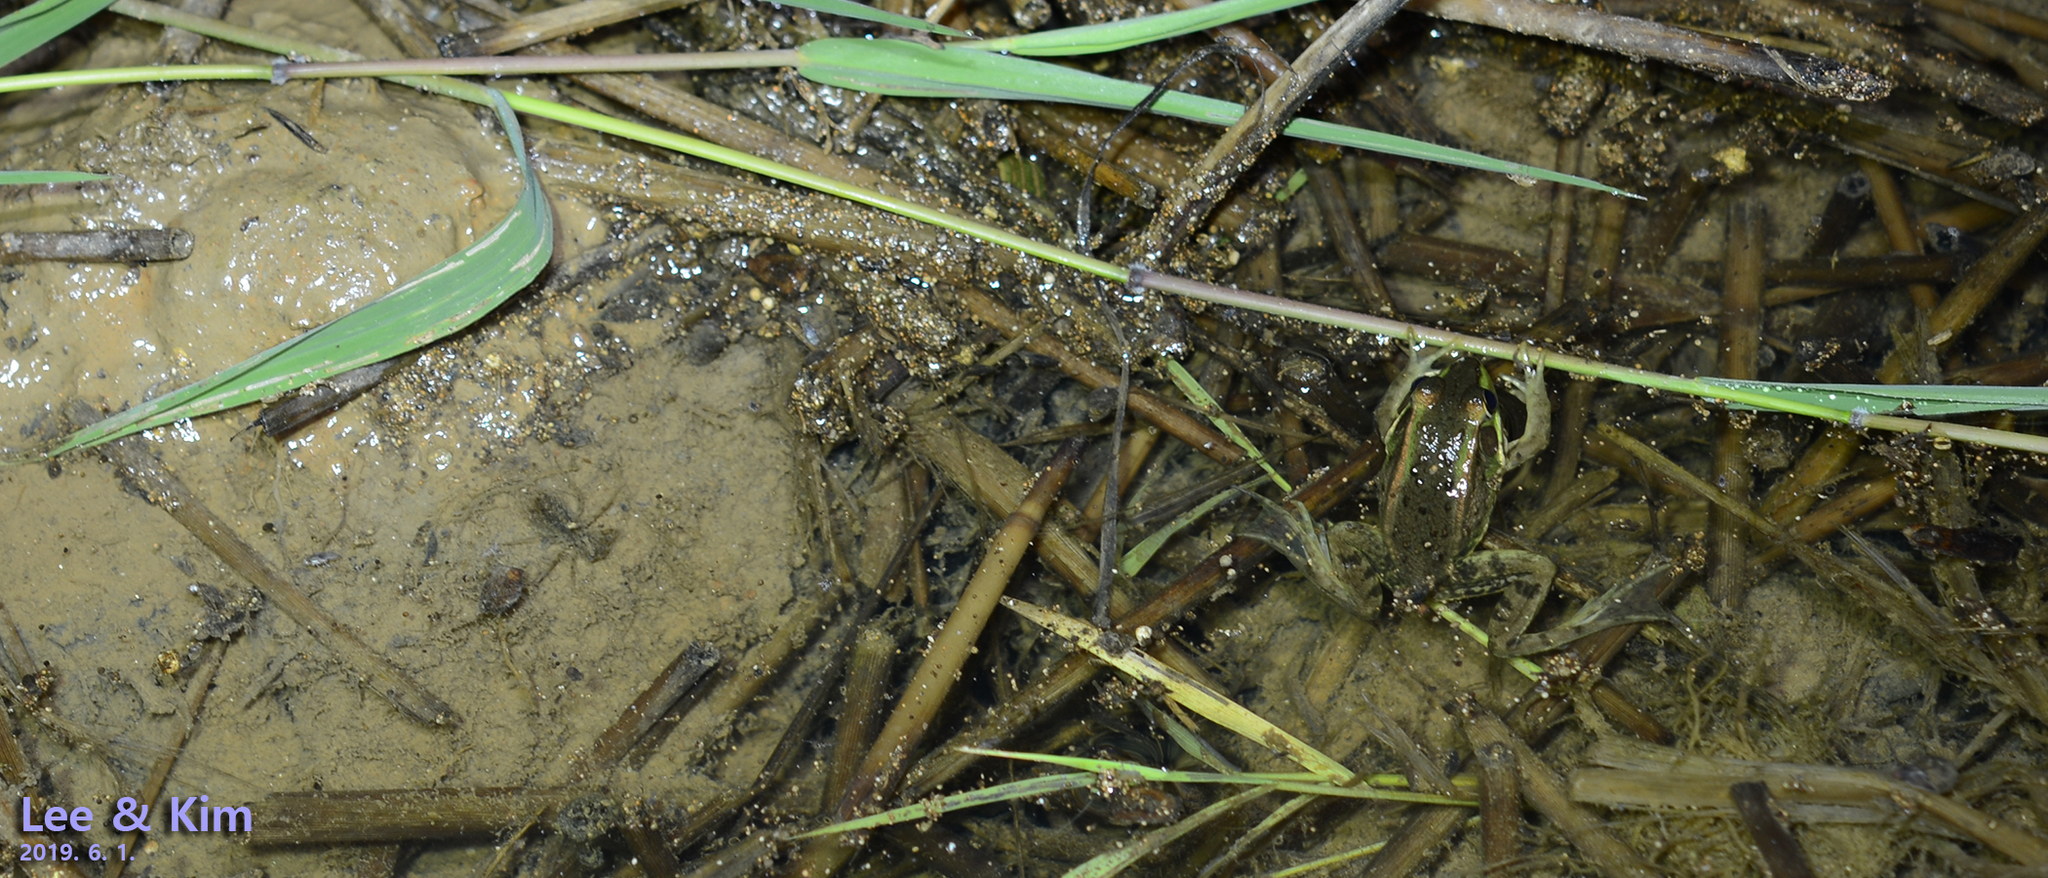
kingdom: Animalia
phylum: Chordata
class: Amphibia
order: Anura
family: Ranidae
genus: Pelophylax
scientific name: Pelophylax chosenicus
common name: Gold-spotted pond frog
